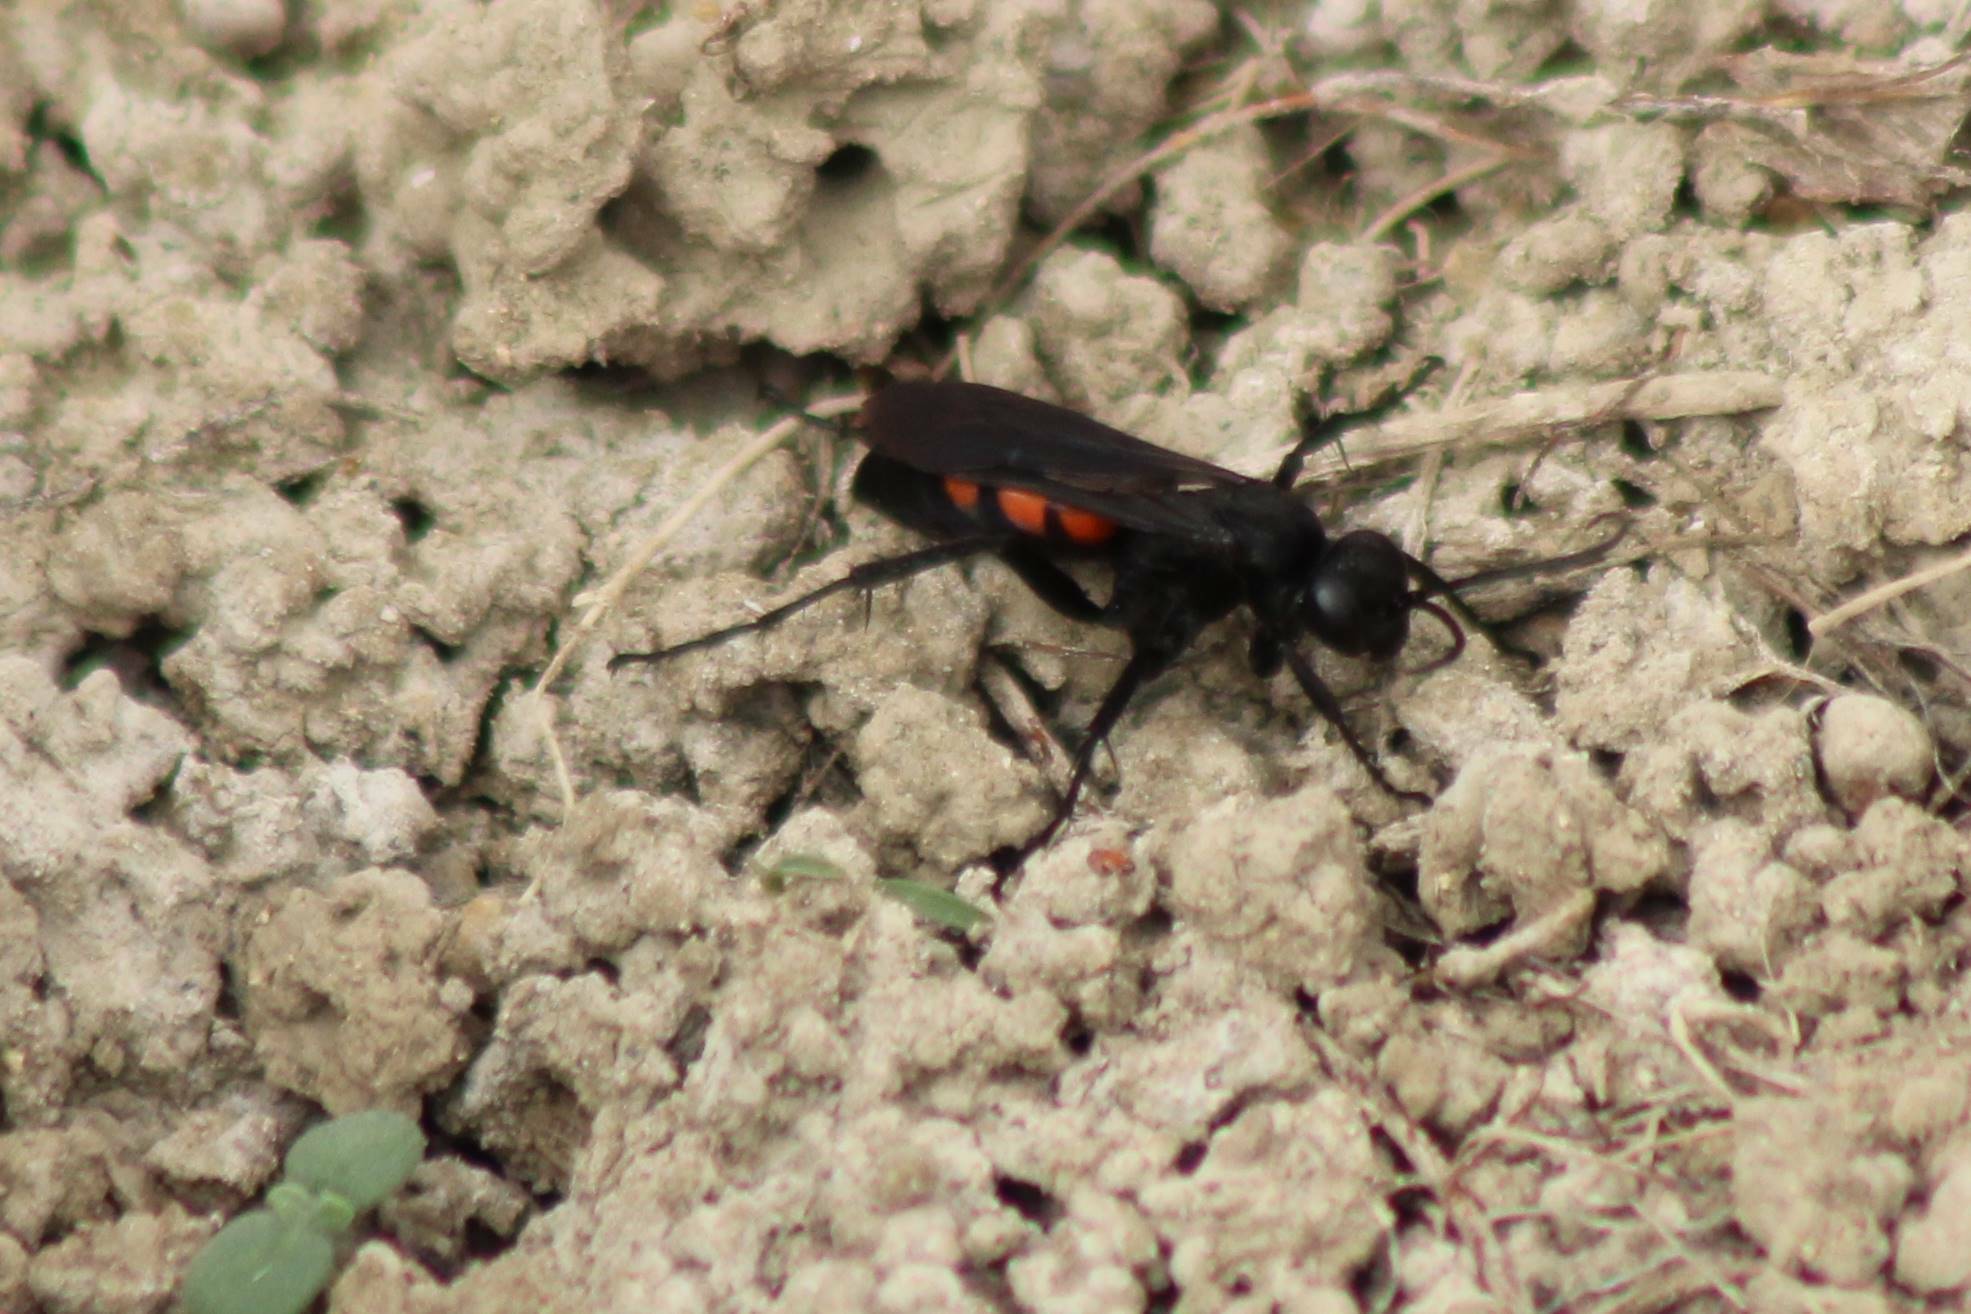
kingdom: Animalia
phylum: Arthropoda
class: Insecta
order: Hymenoptera
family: Pompilidae
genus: Anoplius
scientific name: Anoplius viaticus
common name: Black banded spider wasp
